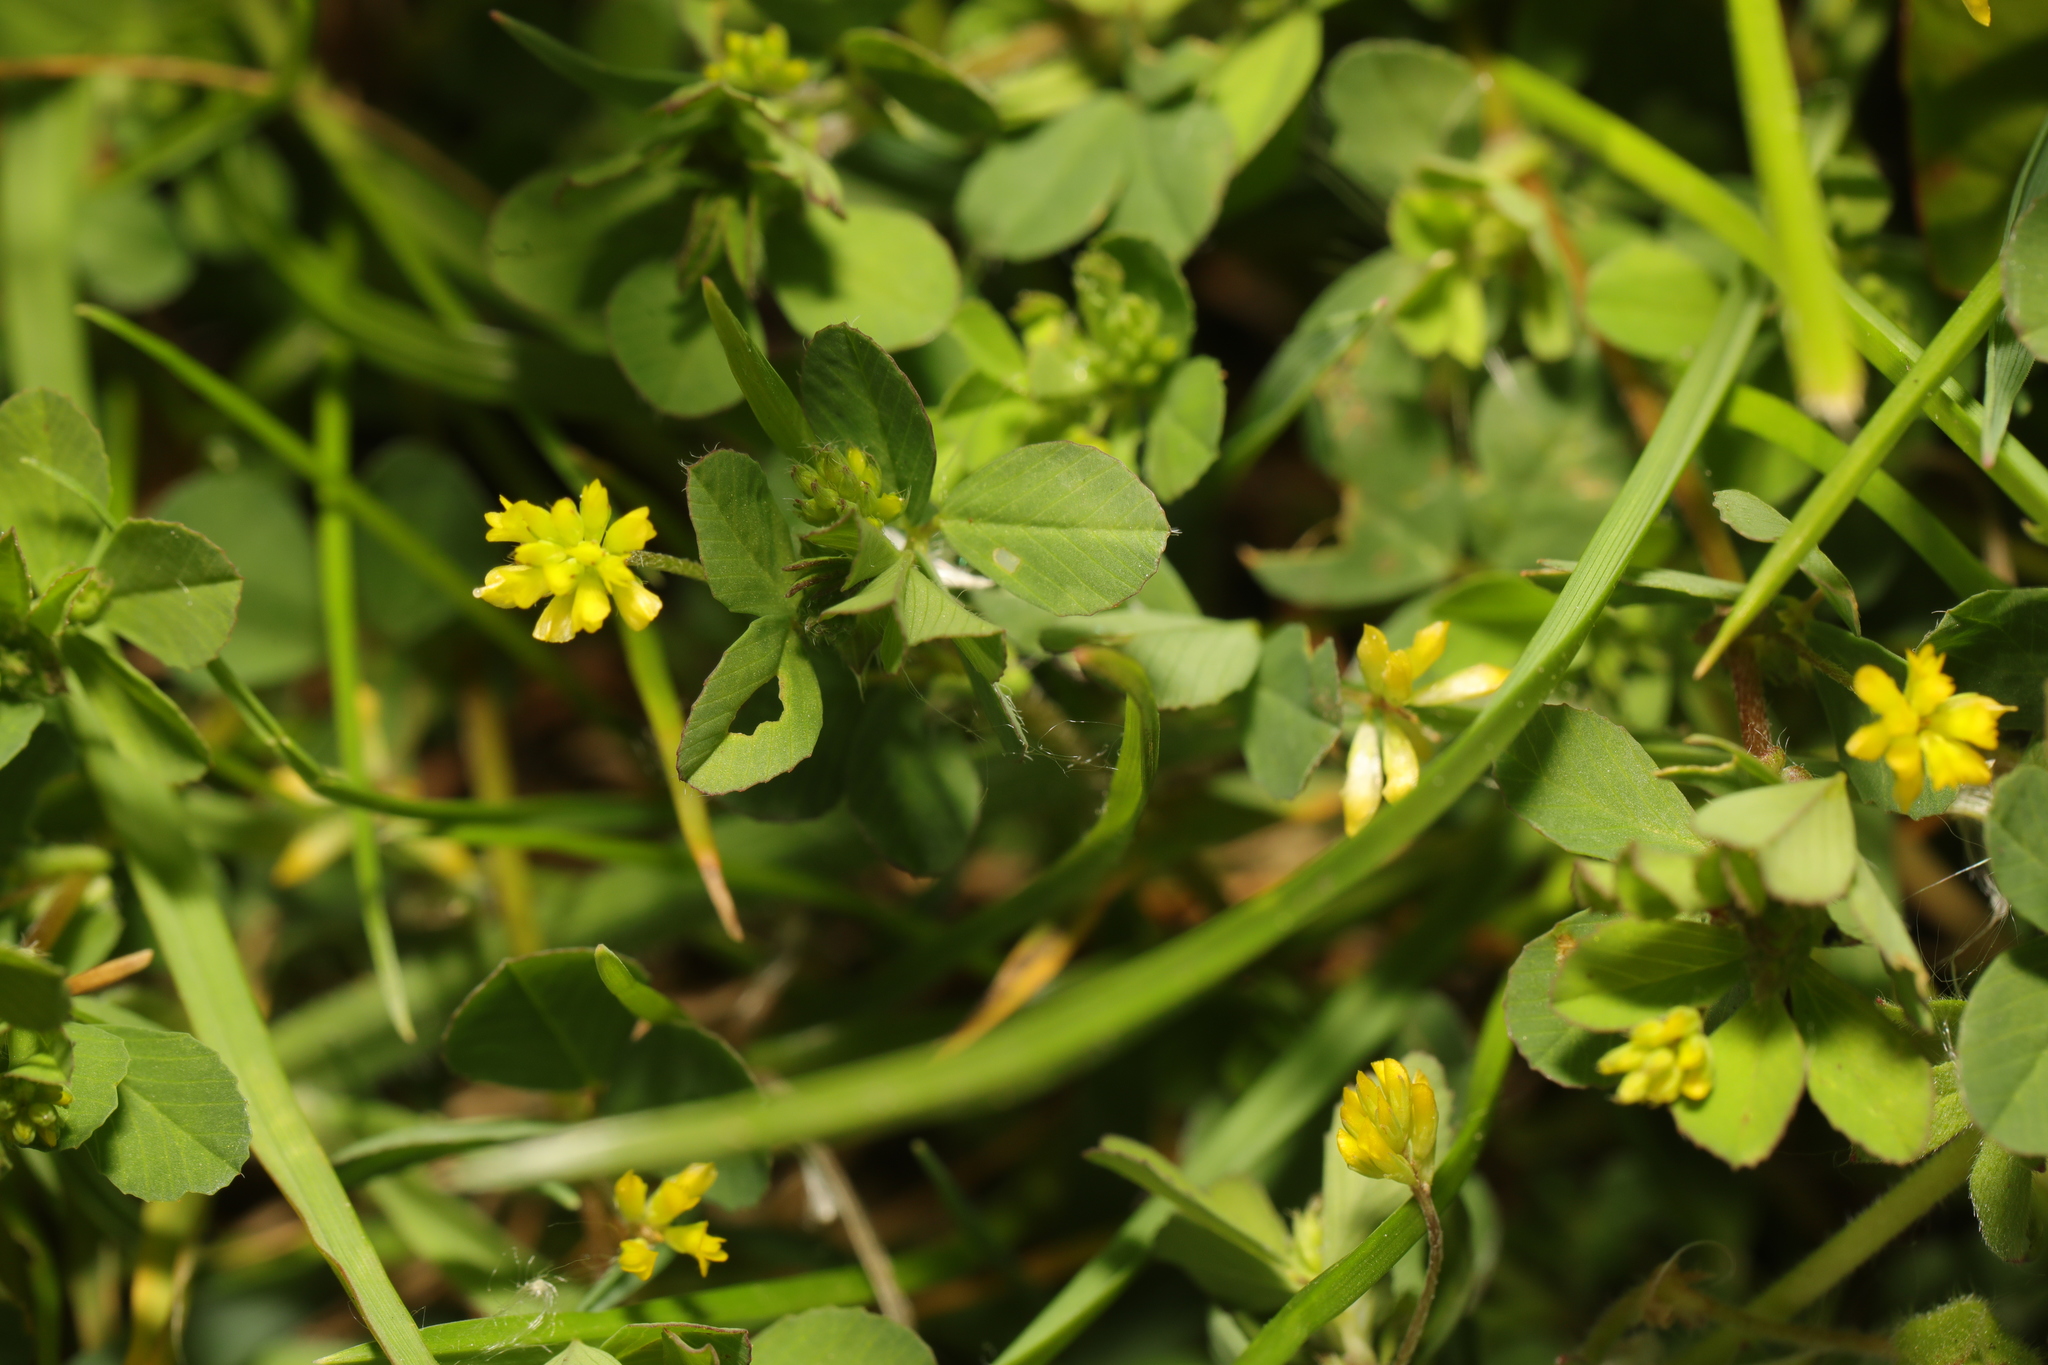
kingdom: Plantae
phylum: Tracheophyta
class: Magnoliopsida
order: Fabales
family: Fabaceae
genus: Trifolium
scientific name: Trifolium dubium
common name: Suckling clover
